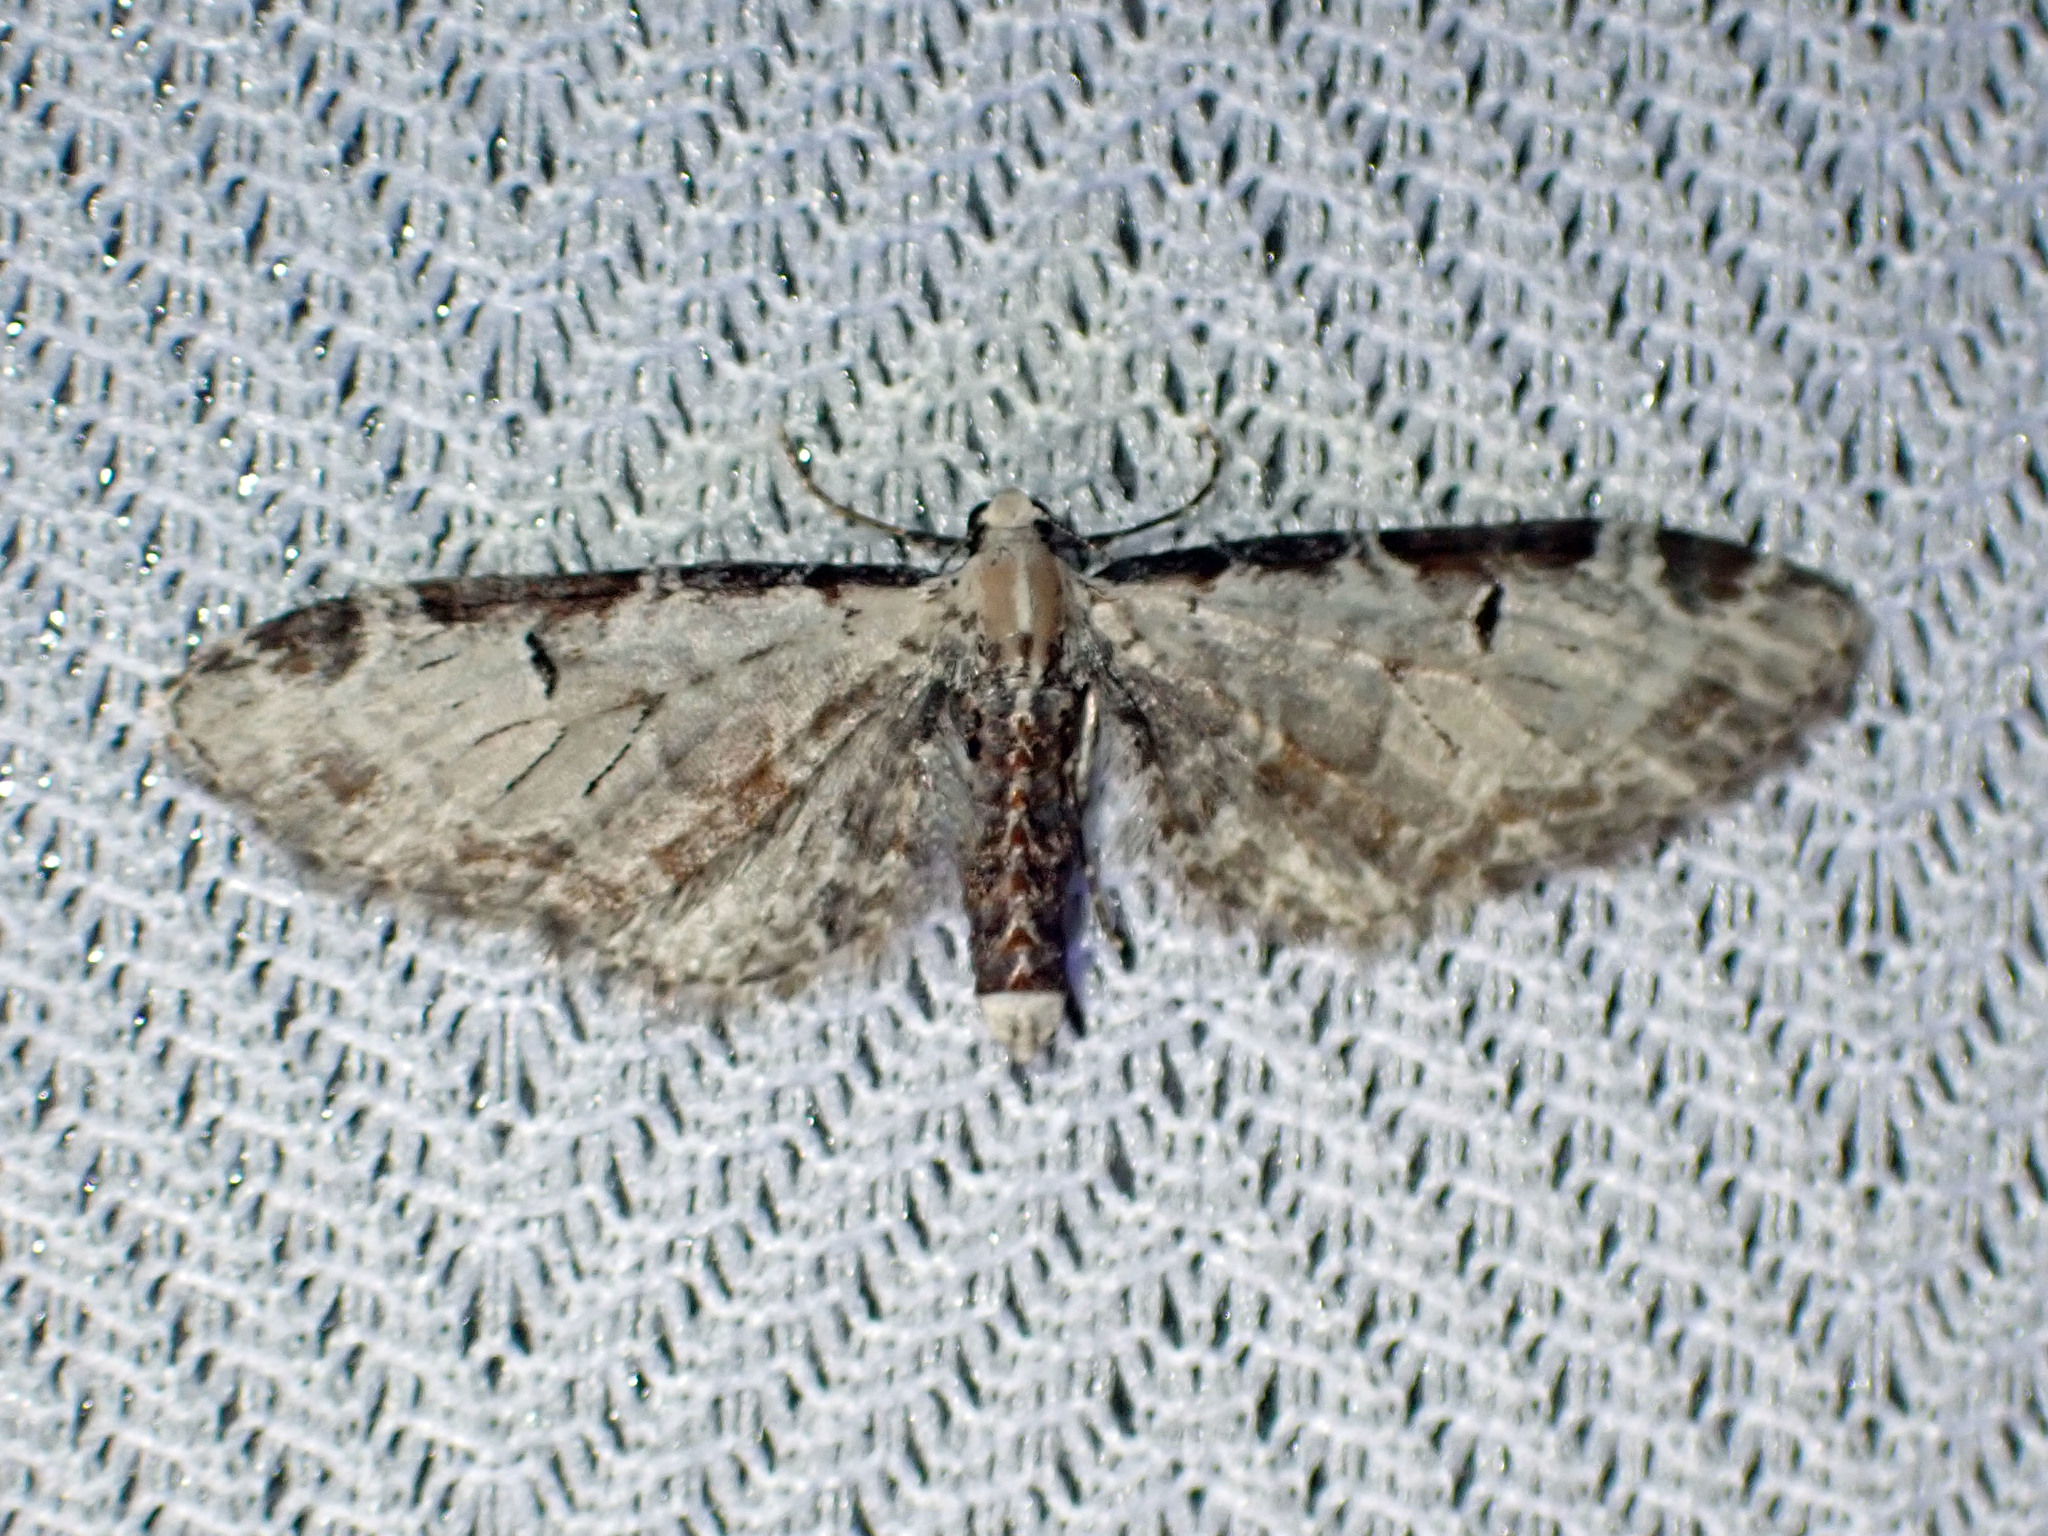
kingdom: Animalia
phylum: Arthropoda
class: Insecta
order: Lepidoptera
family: Geometridae
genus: Eupithecia
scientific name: Eupithecia ravocostaliata
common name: Great varigated pug
